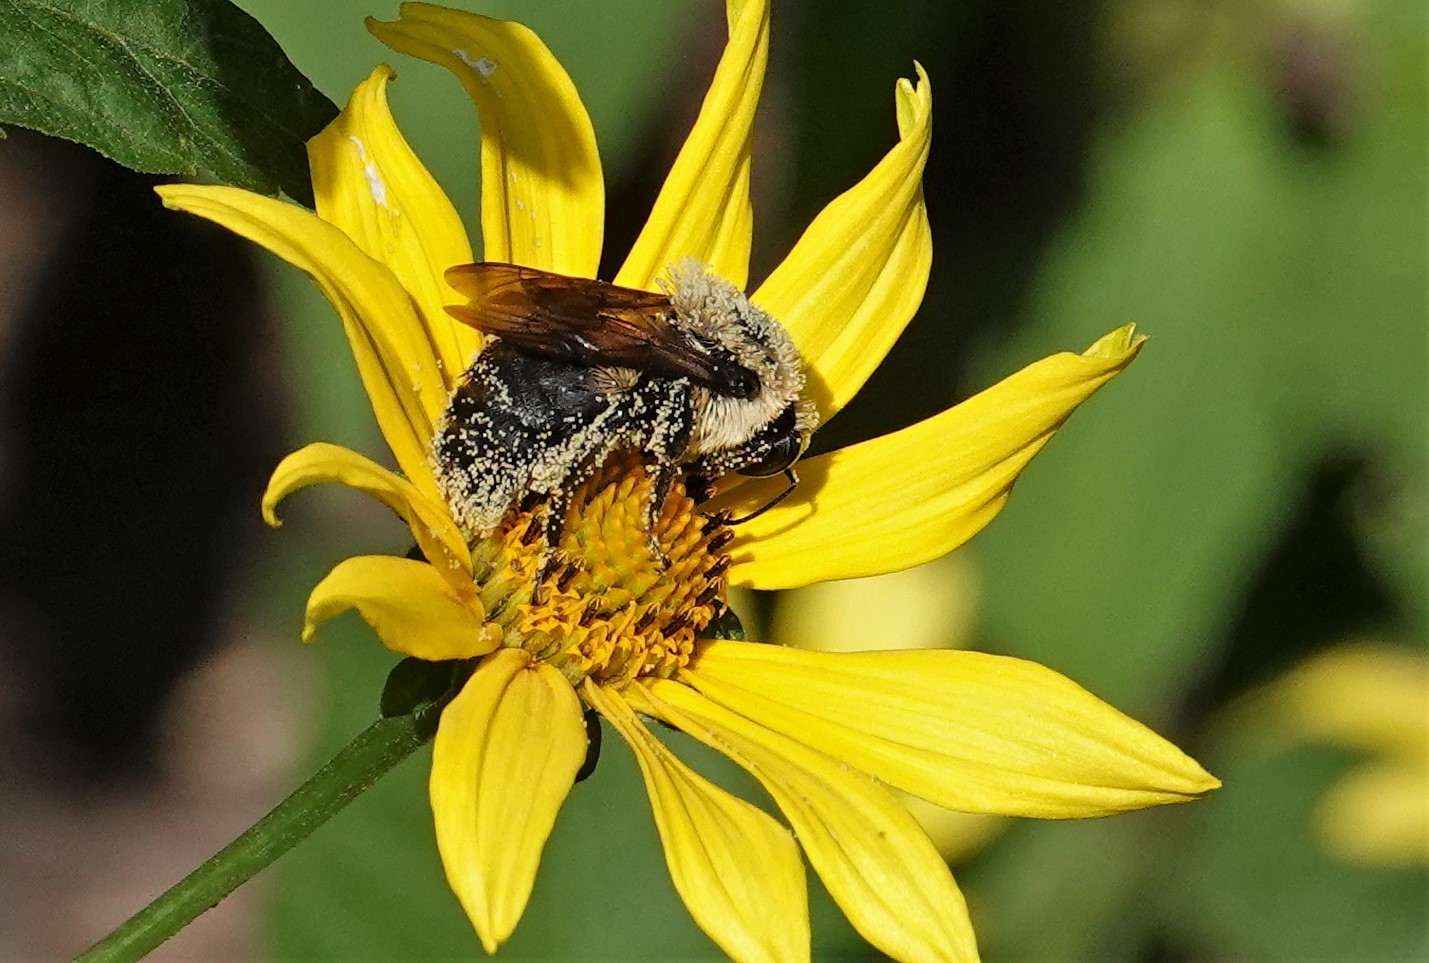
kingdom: Animalia
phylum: Arthropoda
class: Insecta
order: Hymenoptera
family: Apidae
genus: Bombus
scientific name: Bombus griseocollis
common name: Brown-belted bumble bee
